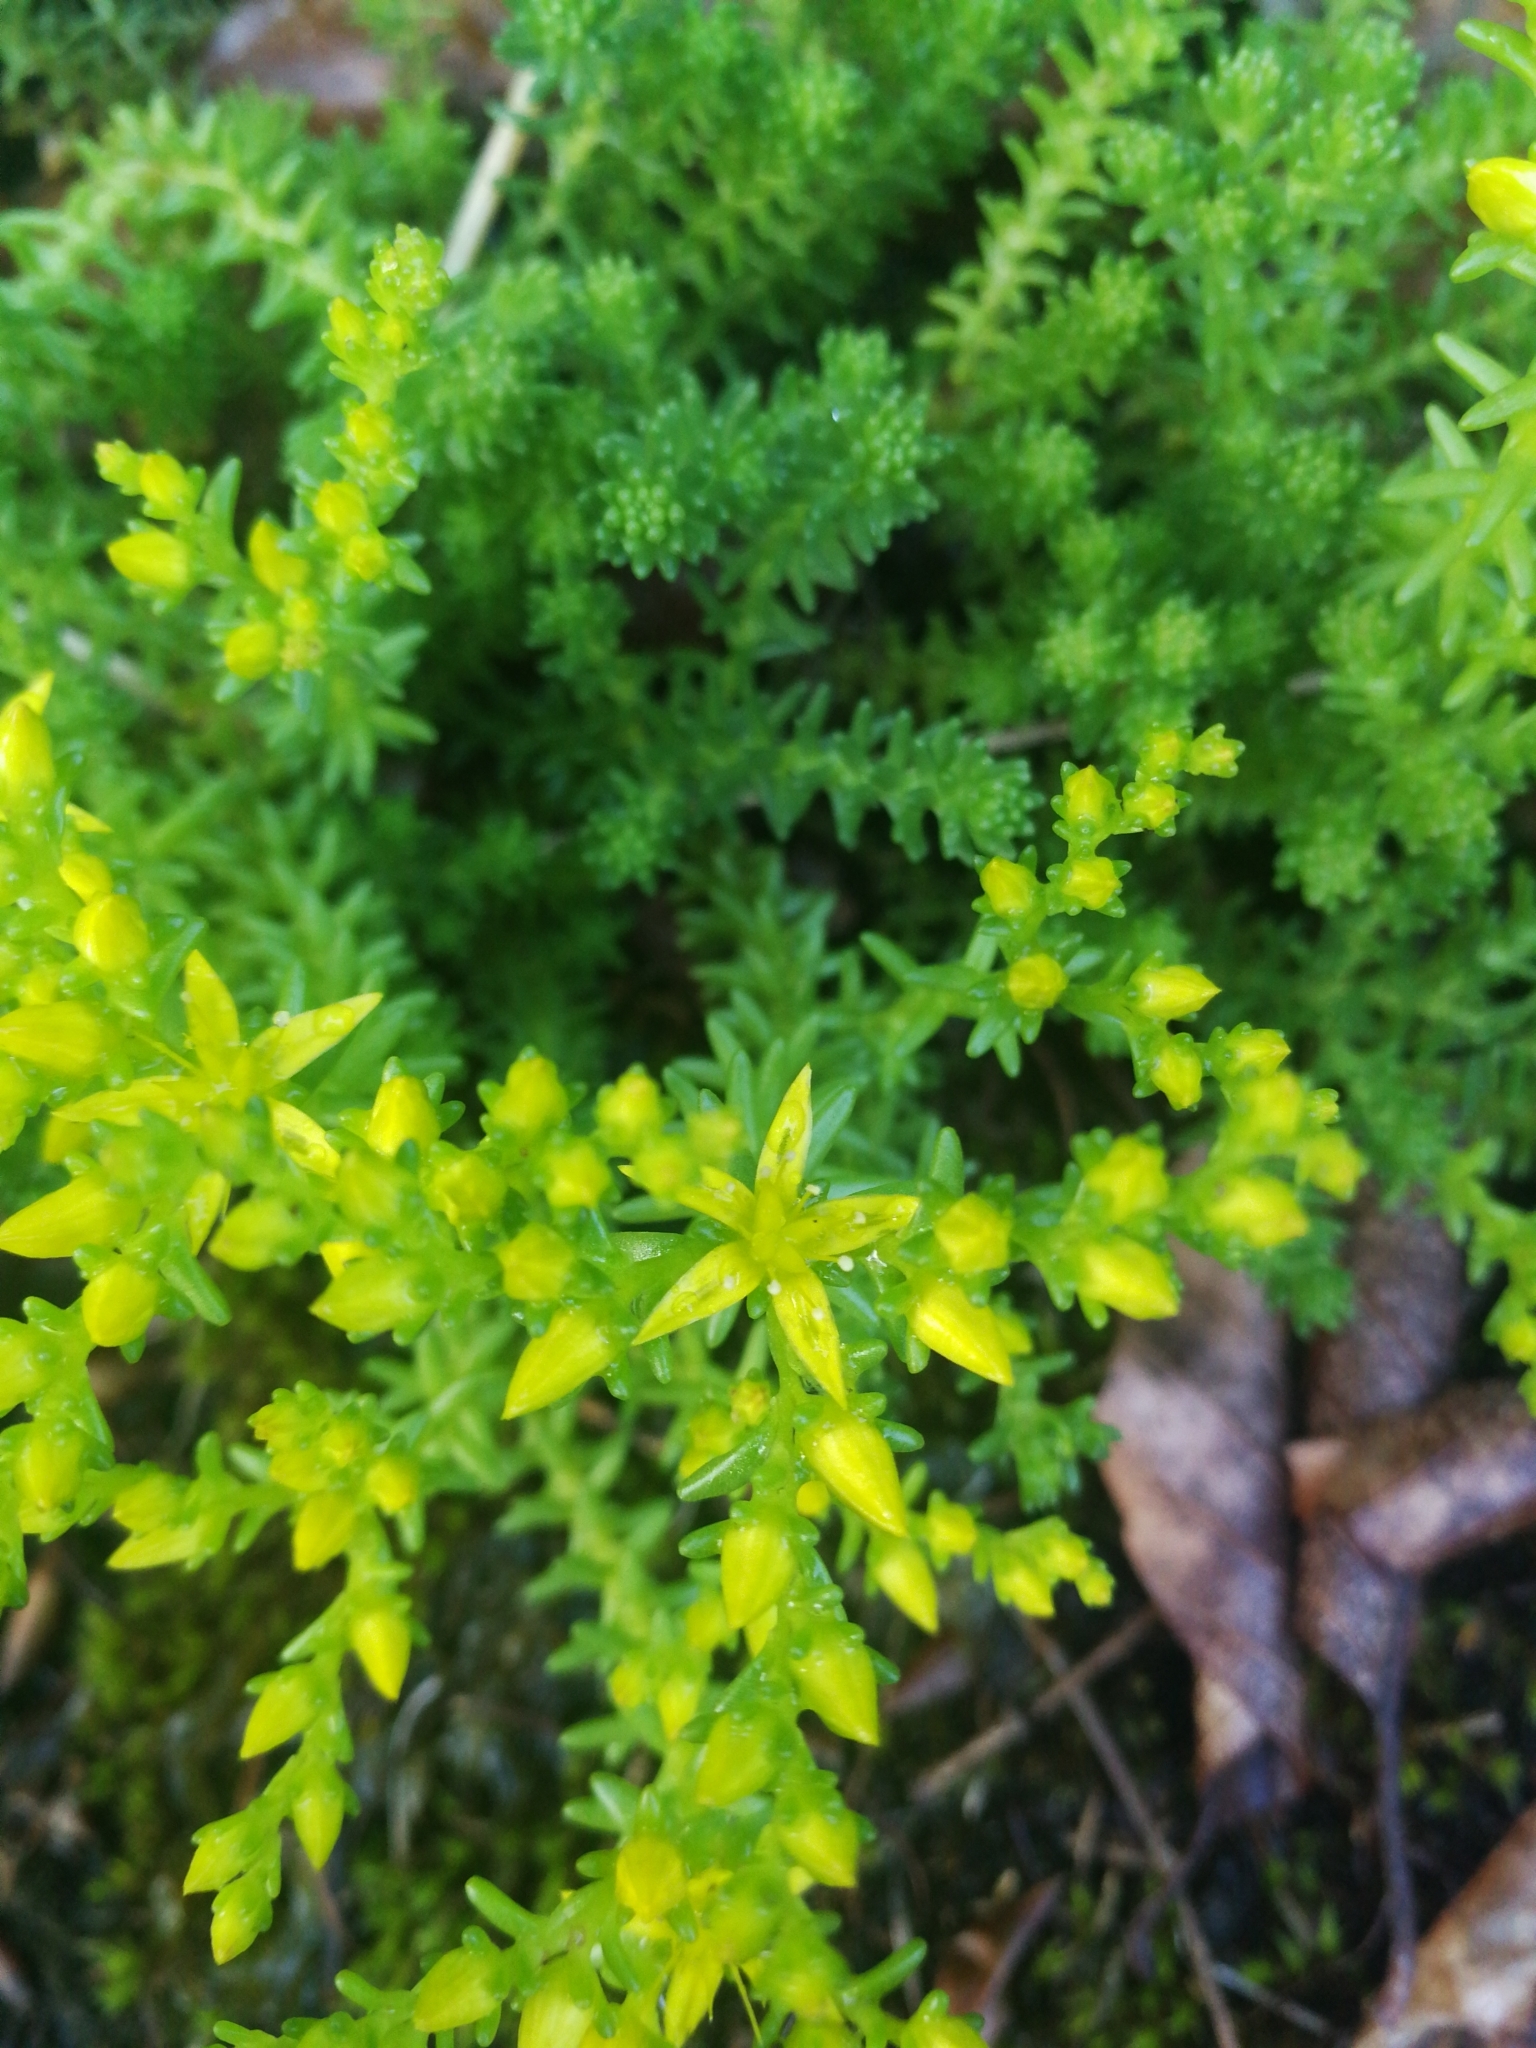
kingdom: Plantae
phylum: Tracheophyta
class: Magnoliopsida
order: Saxifragales
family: Crassulaceae
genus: Sedum
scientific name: Sedum sexangulare
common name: Tasteless stonecrop
